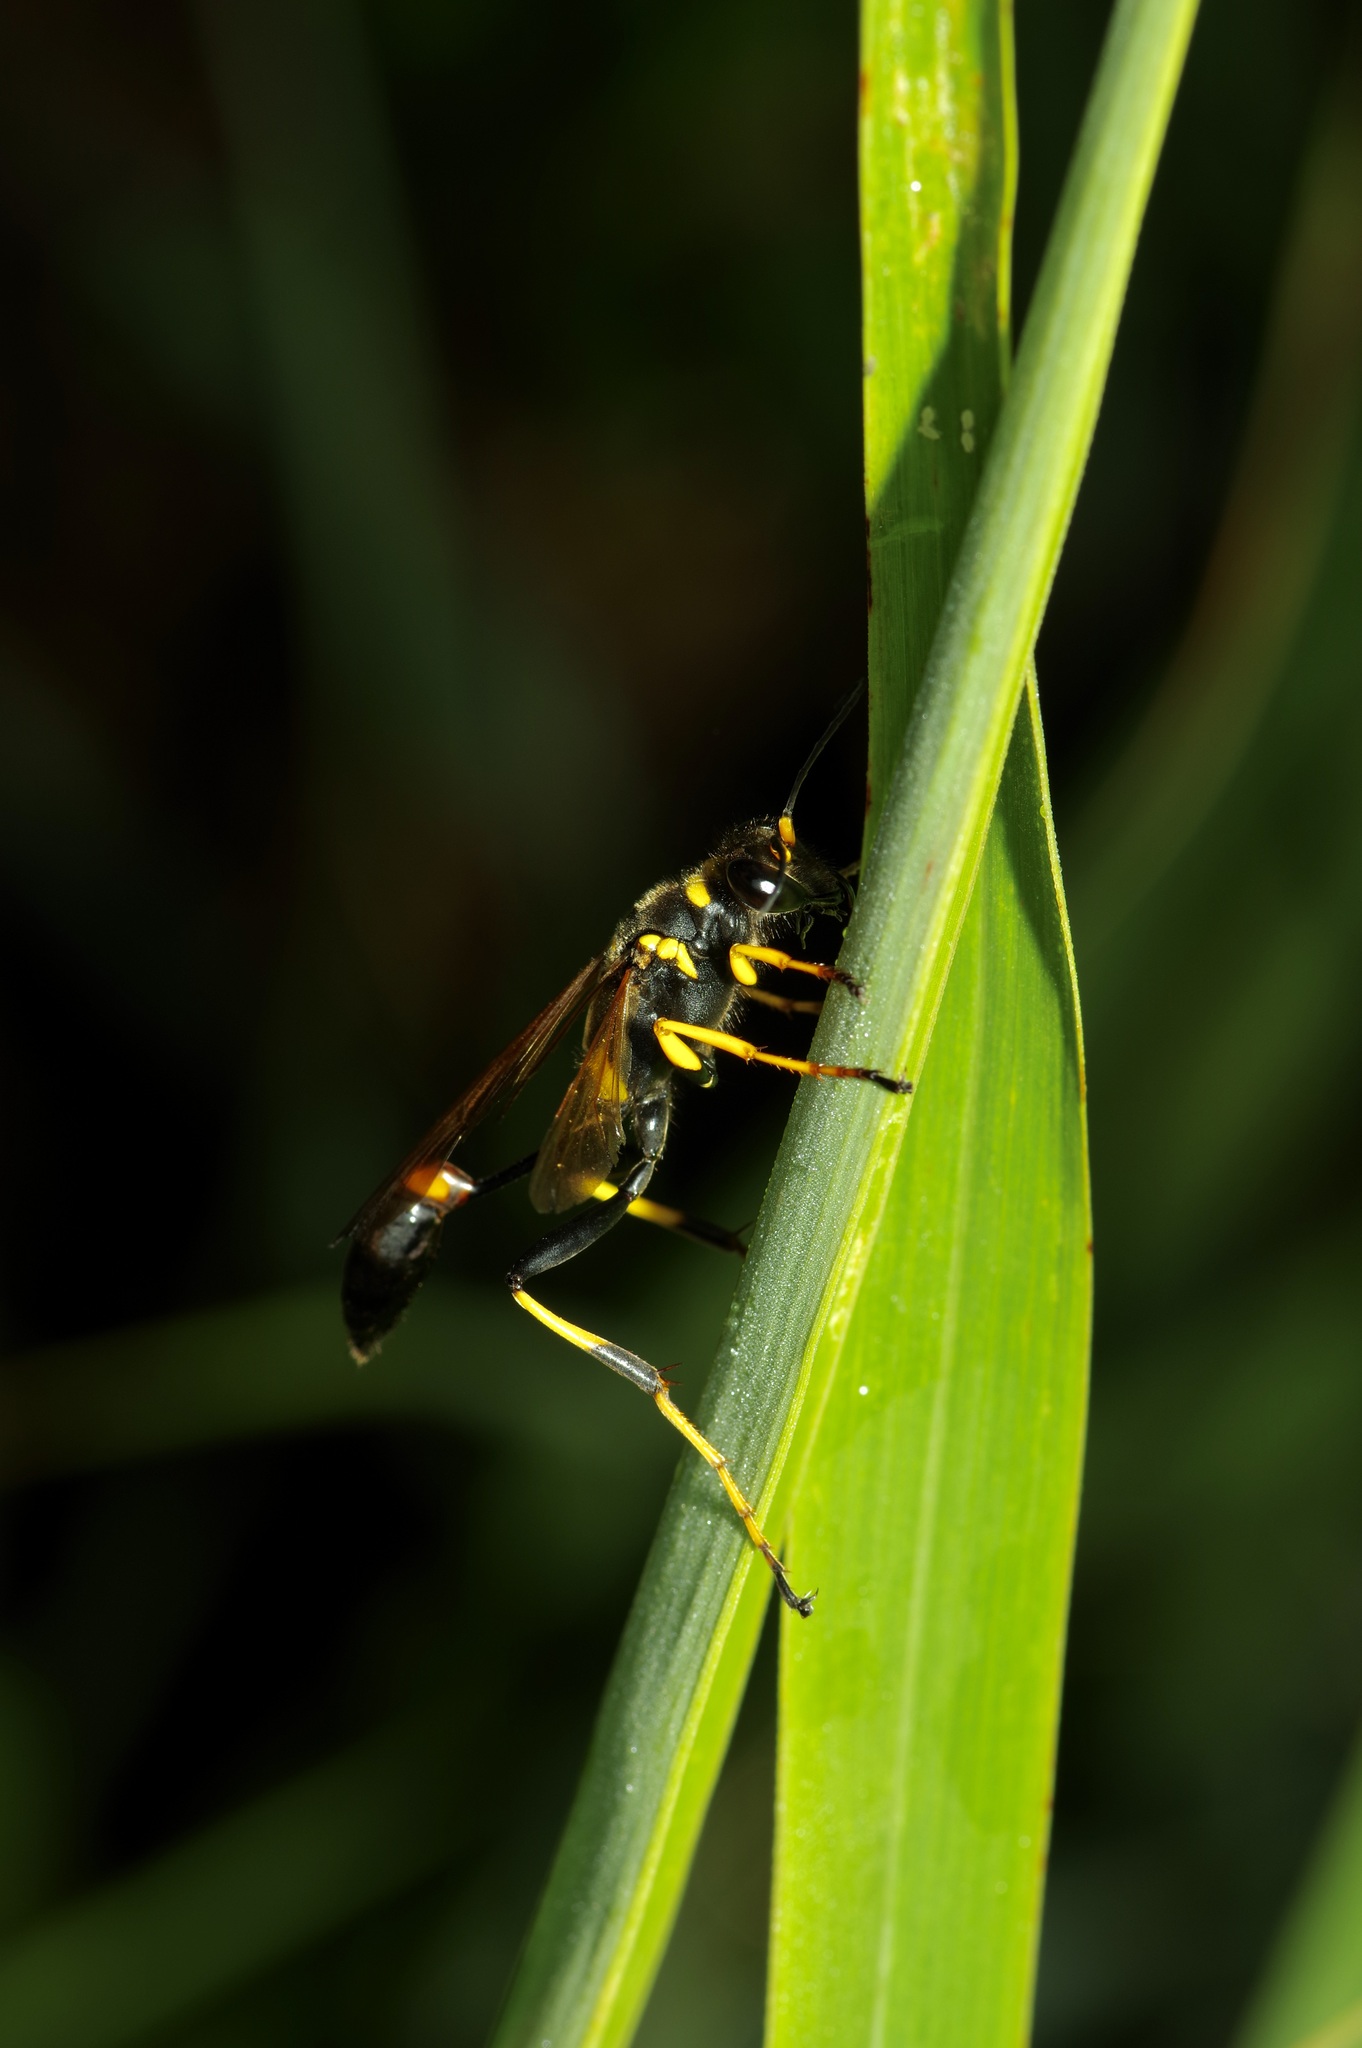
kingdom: Animalia
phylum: Arthropoda
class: Insecta
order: Hymenoptera
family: Sphecidae
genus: Sceliphron
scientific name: Sceliphron caementarium
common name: Mud dauber
